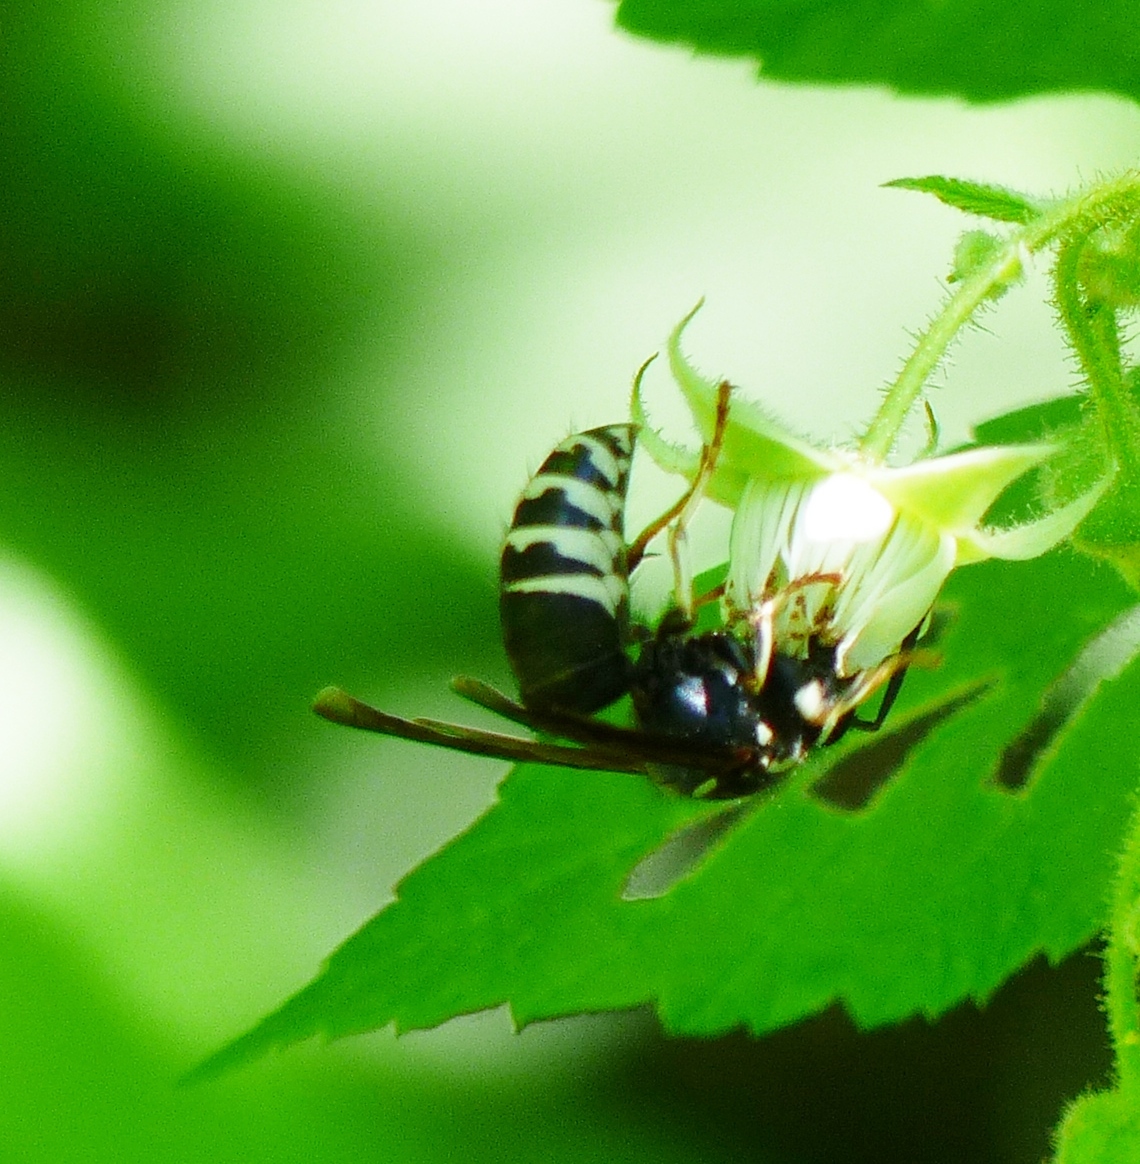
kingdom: Animalia
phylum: Arthropoda
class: Insecta
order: Hymenoptera
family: Vespidae
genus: Vespula
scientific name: Vespula consobrina
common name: Blackjacket
